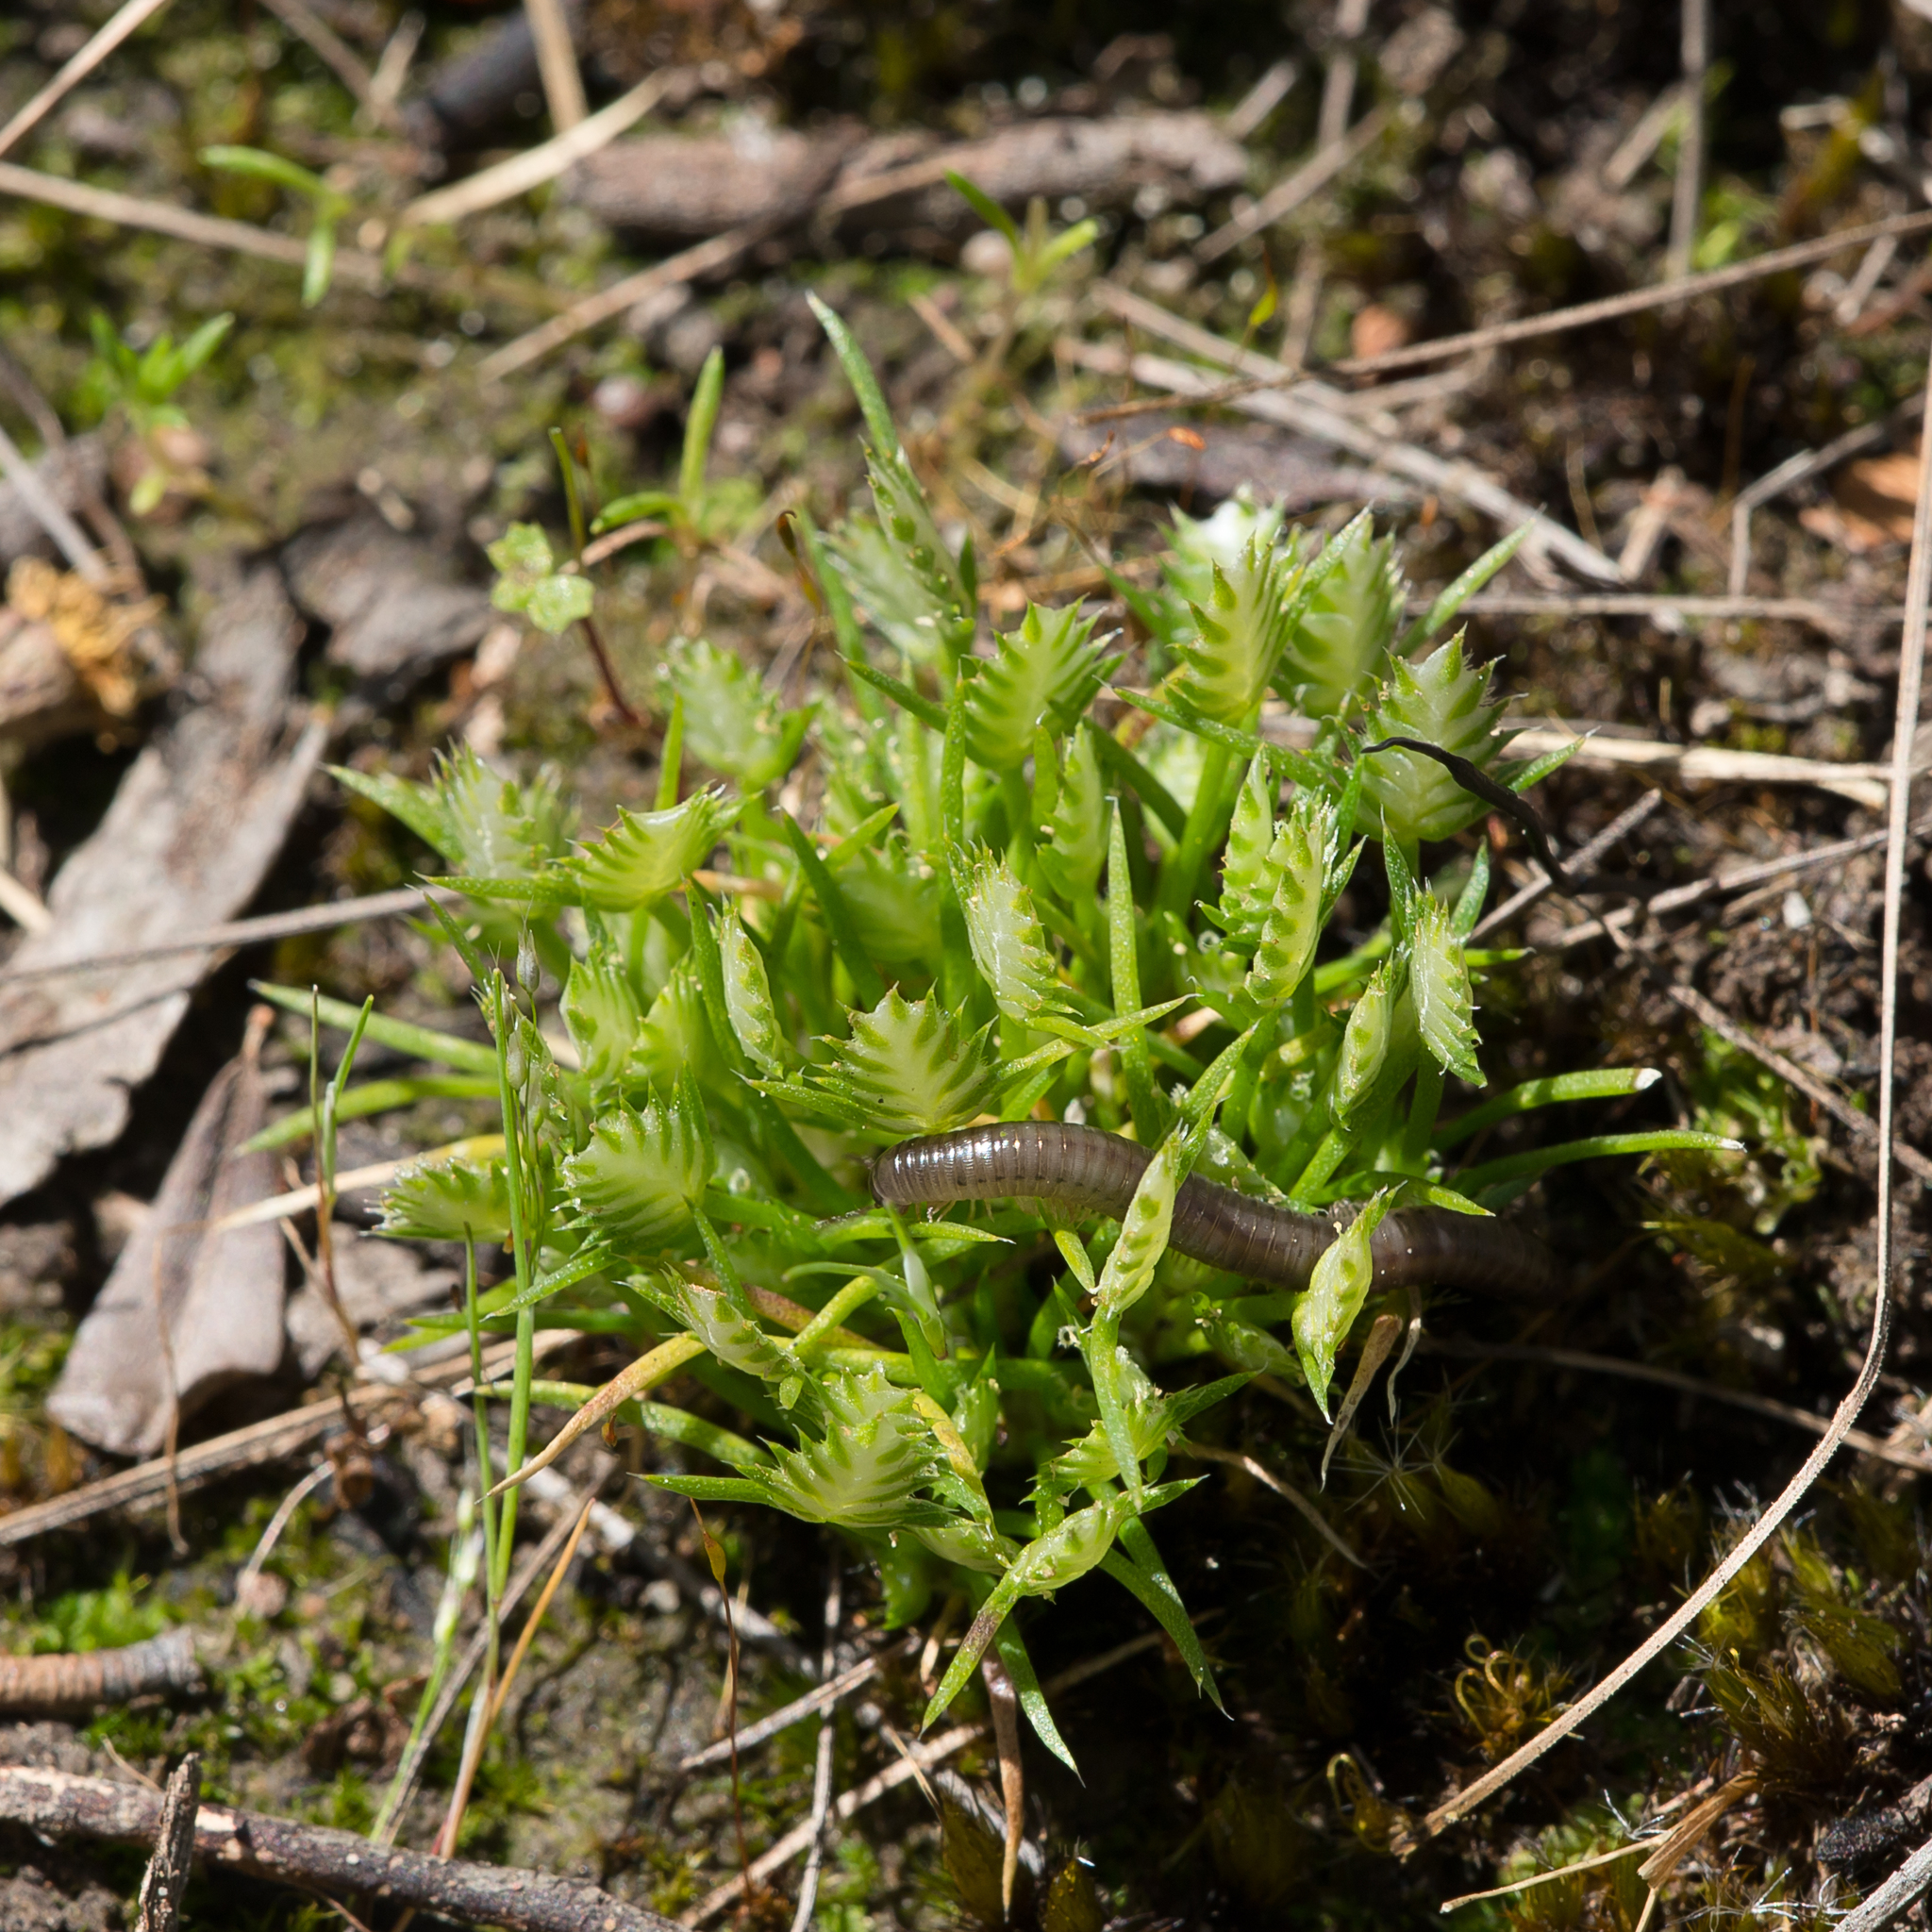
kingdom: Plantae
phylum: Tracheophyta
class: Liliopsida
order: Poales
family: Restionaceae
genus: Aphelia
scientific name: Aphelia pumilio
